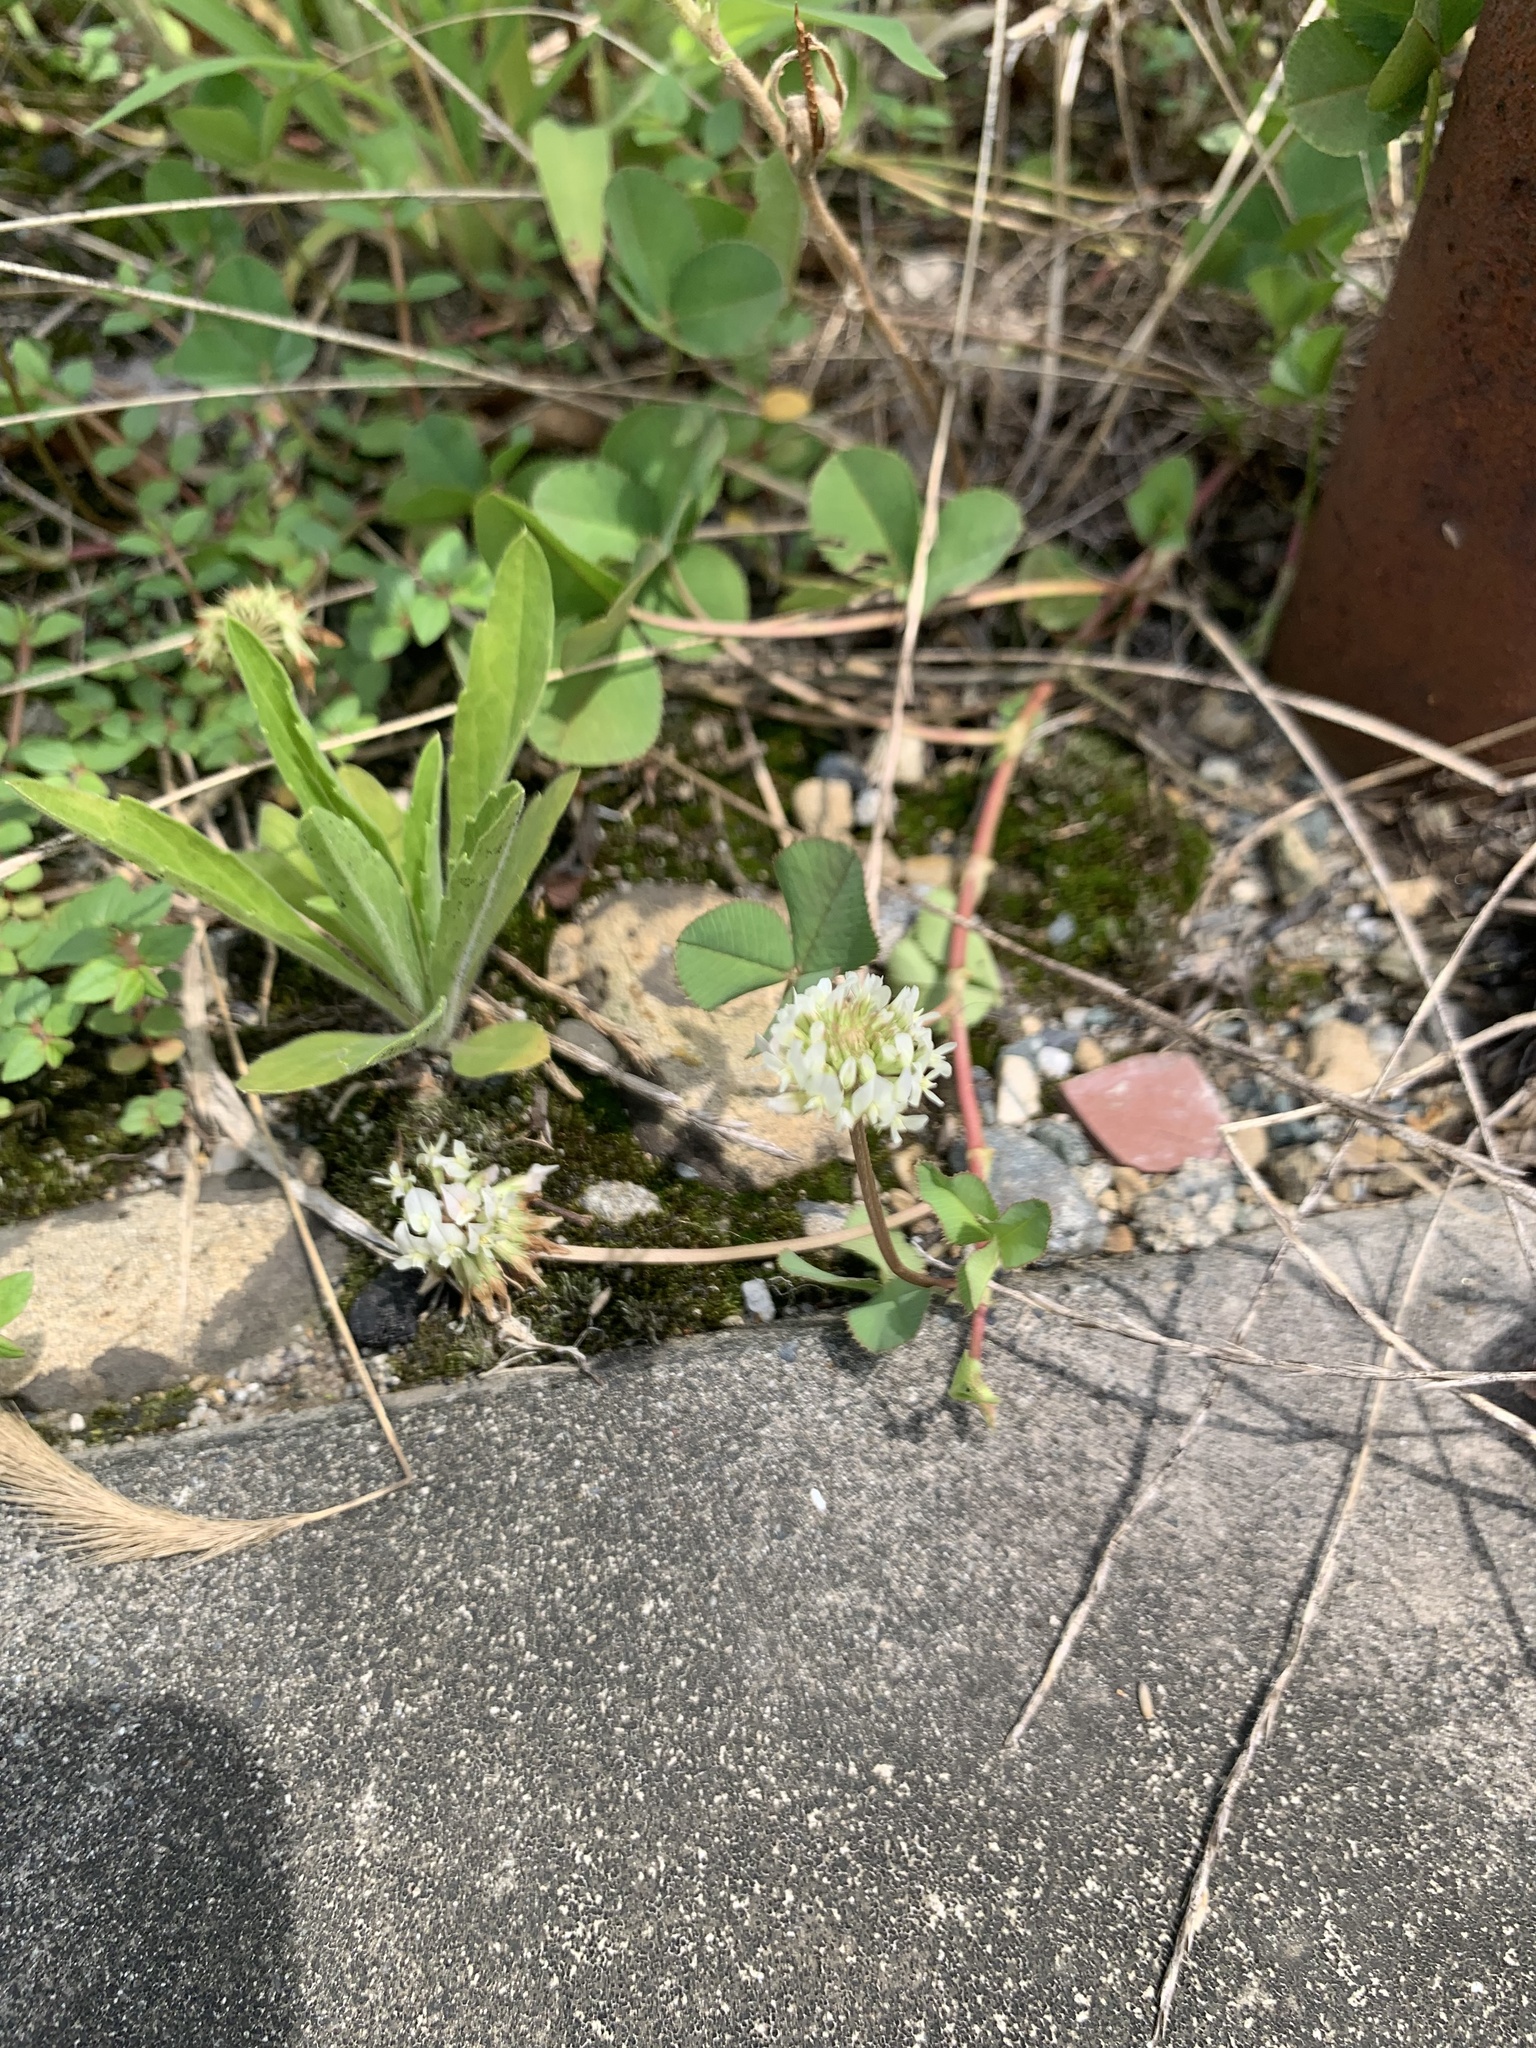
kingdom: Plantae
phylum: Tracheophyta
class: Magnoliopsida
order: Fabales
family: Fabaceae
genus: Trifolium
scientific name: Trifolium repens
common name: White clover
